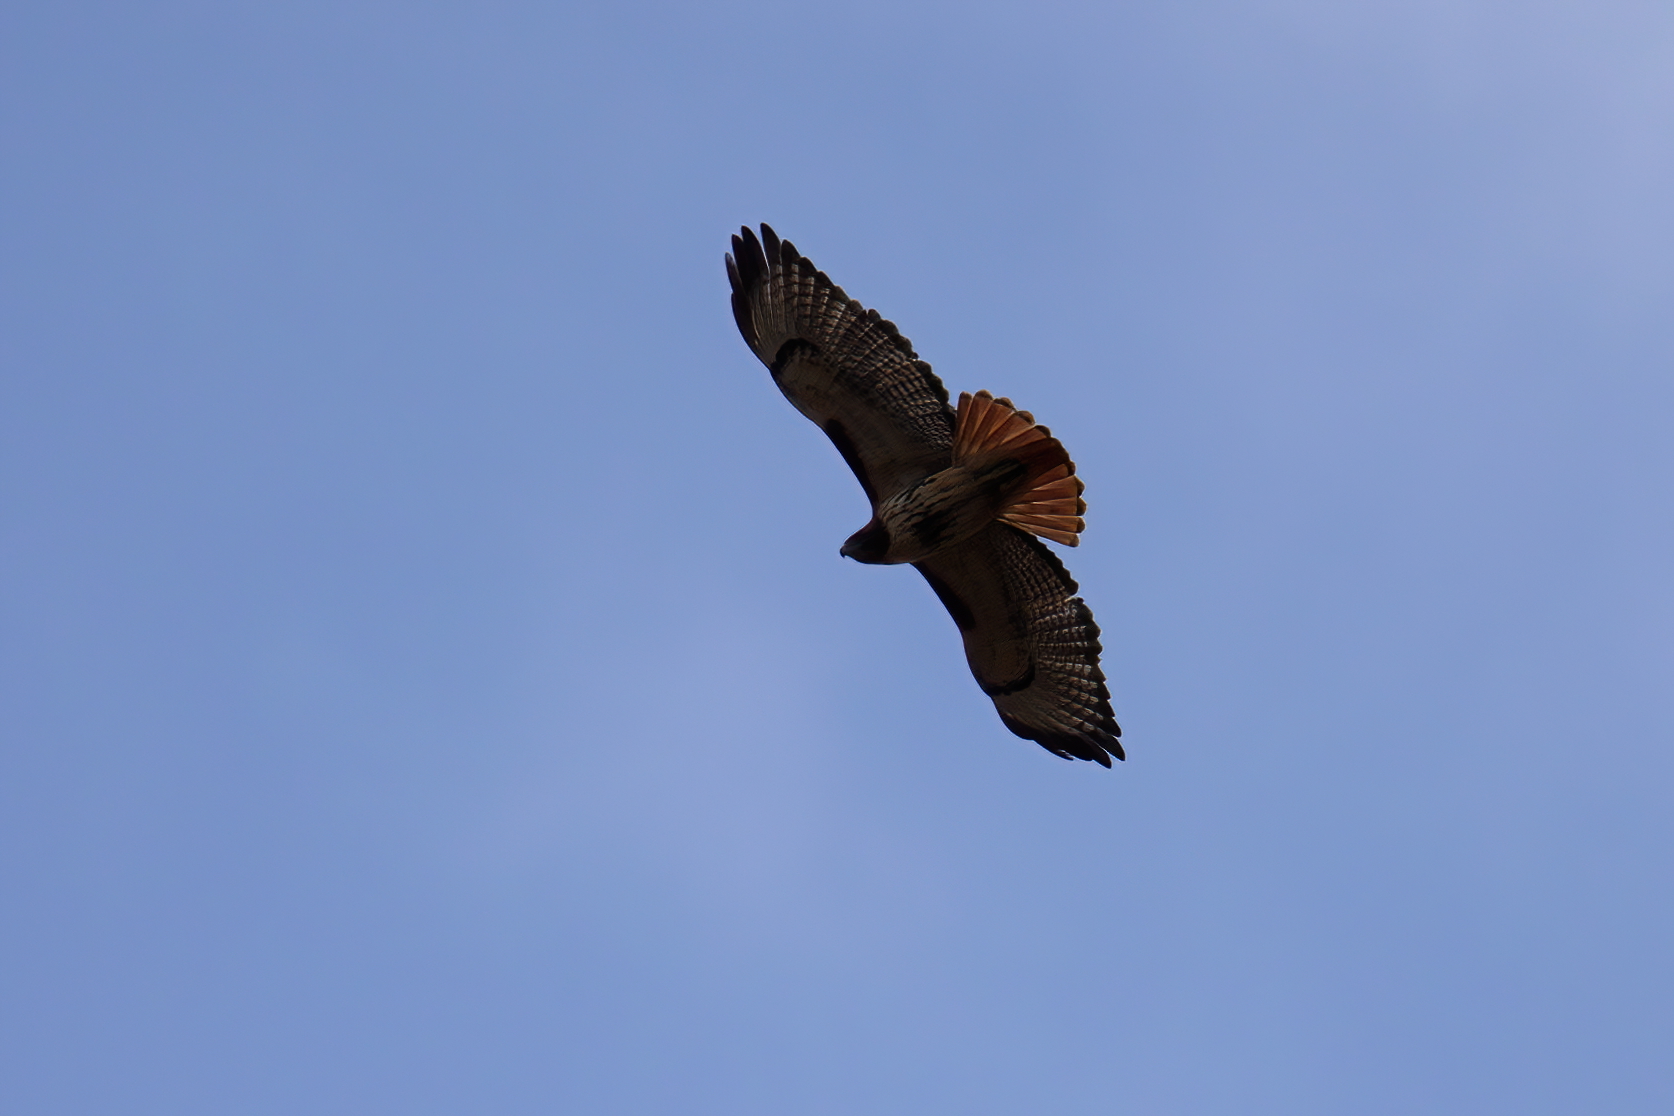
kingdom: Animalia
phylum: Chordata
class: Aves
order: Accipitriformes
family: Accipitridae
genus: Buteo
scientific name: Buteo jamaicensis
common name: Red-tailed hawk
